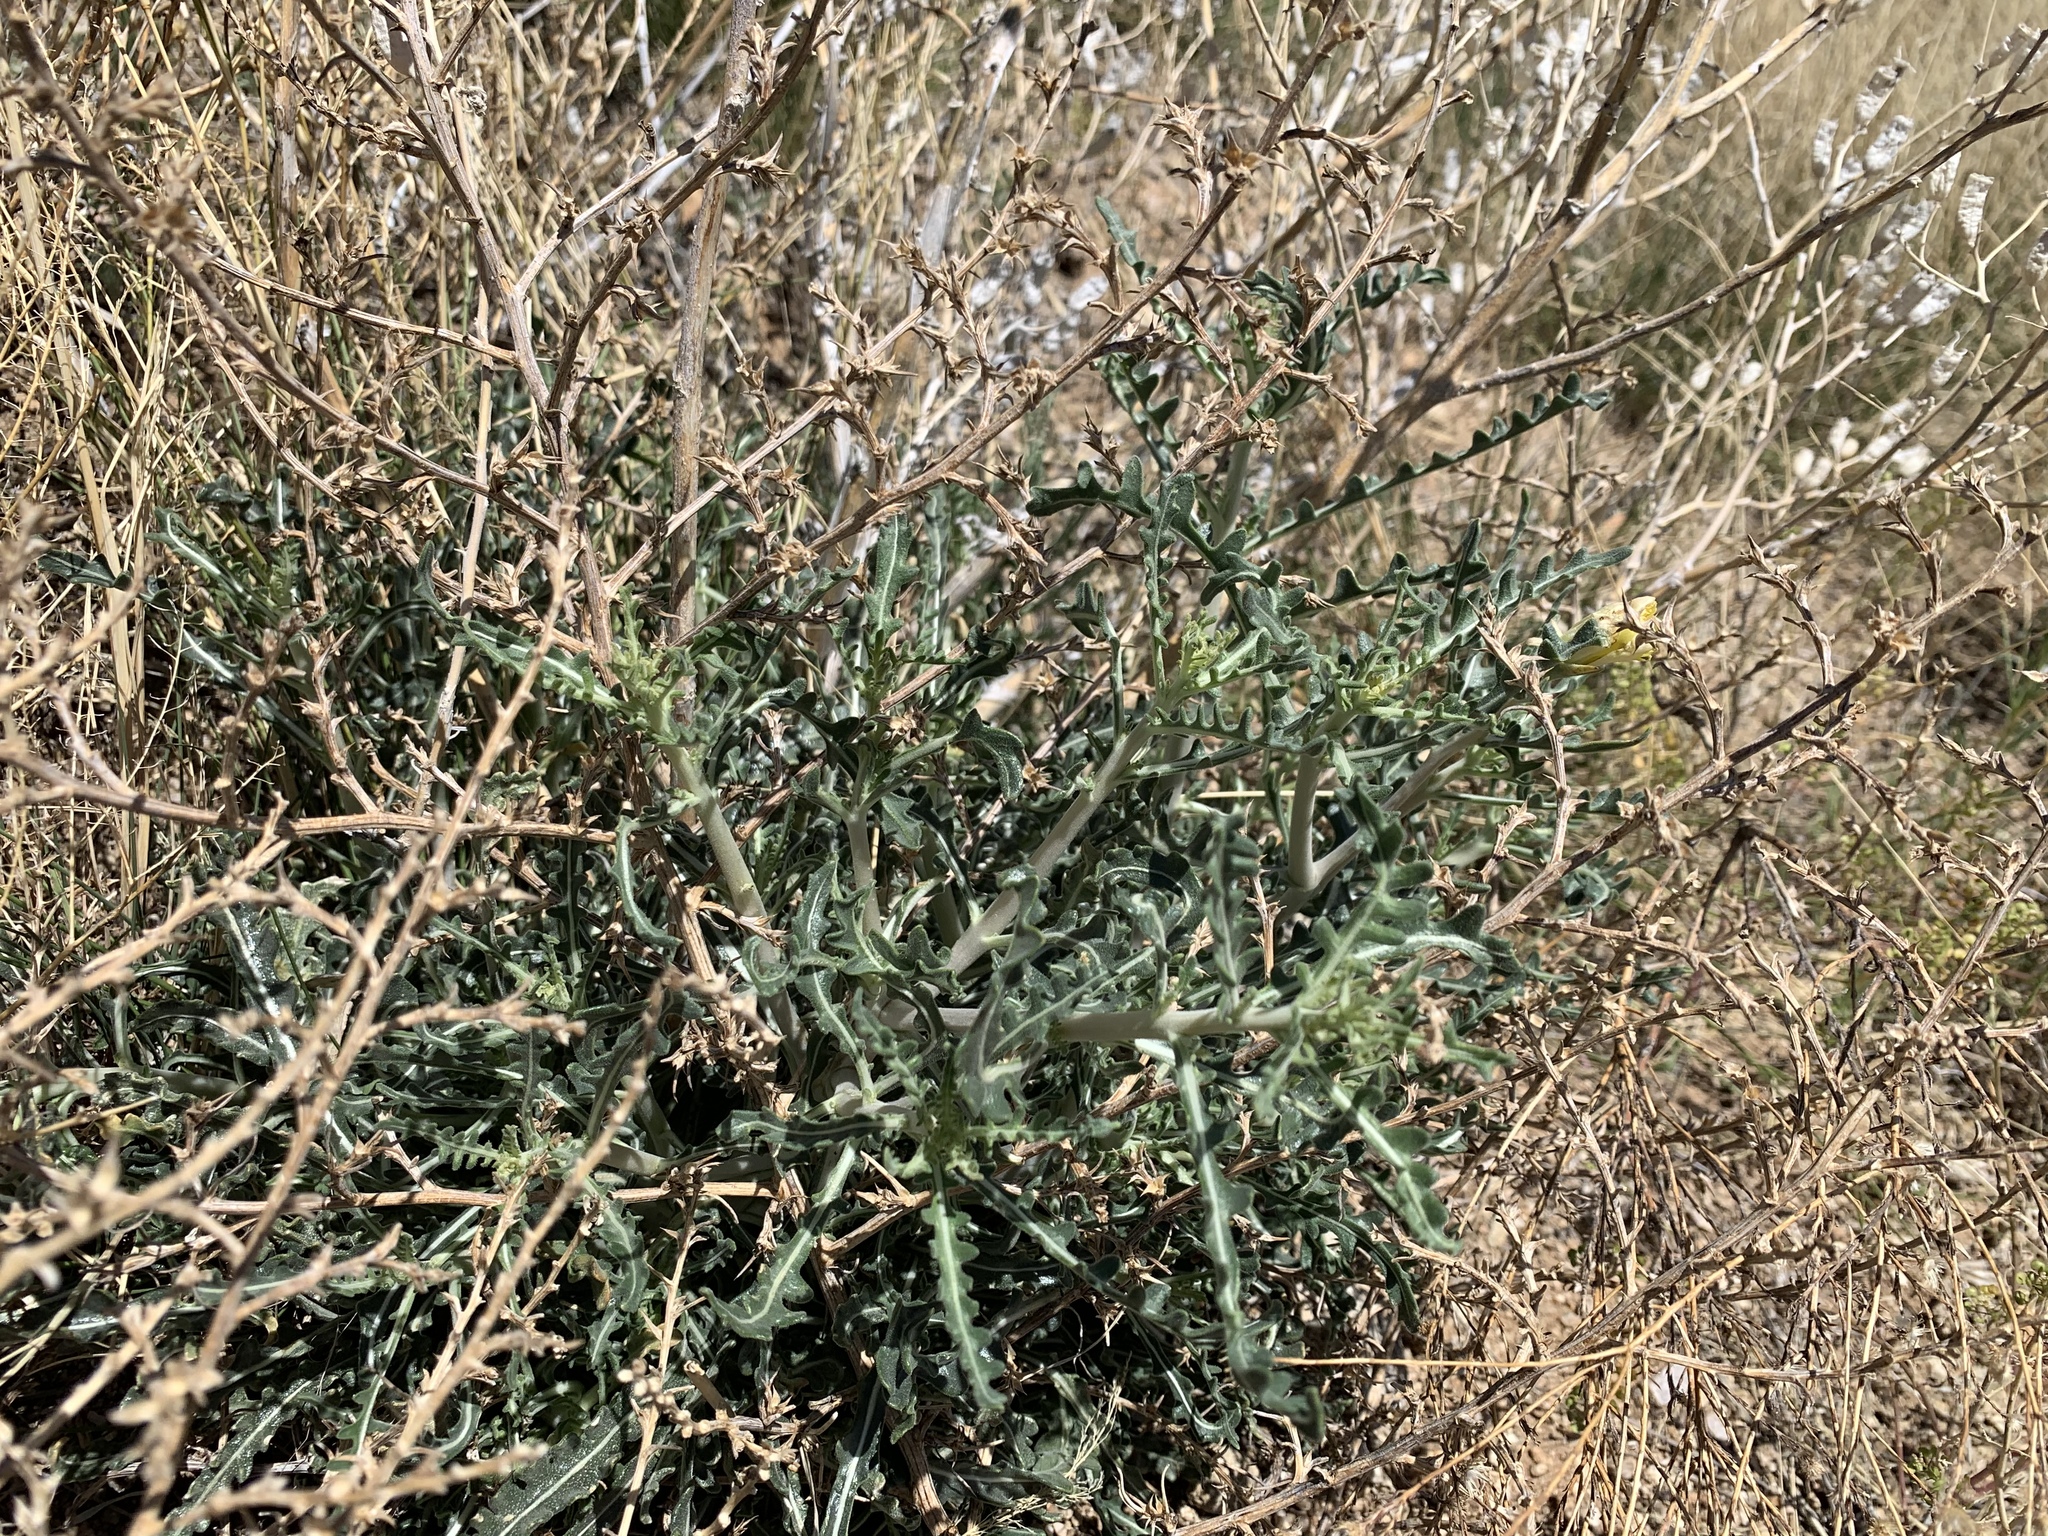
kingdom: Plantae
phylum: Tracheophyta
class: Magnoliopsida
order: Cornales
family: Loasaceae
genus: Mentzelia
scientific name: Mentzelia procera
